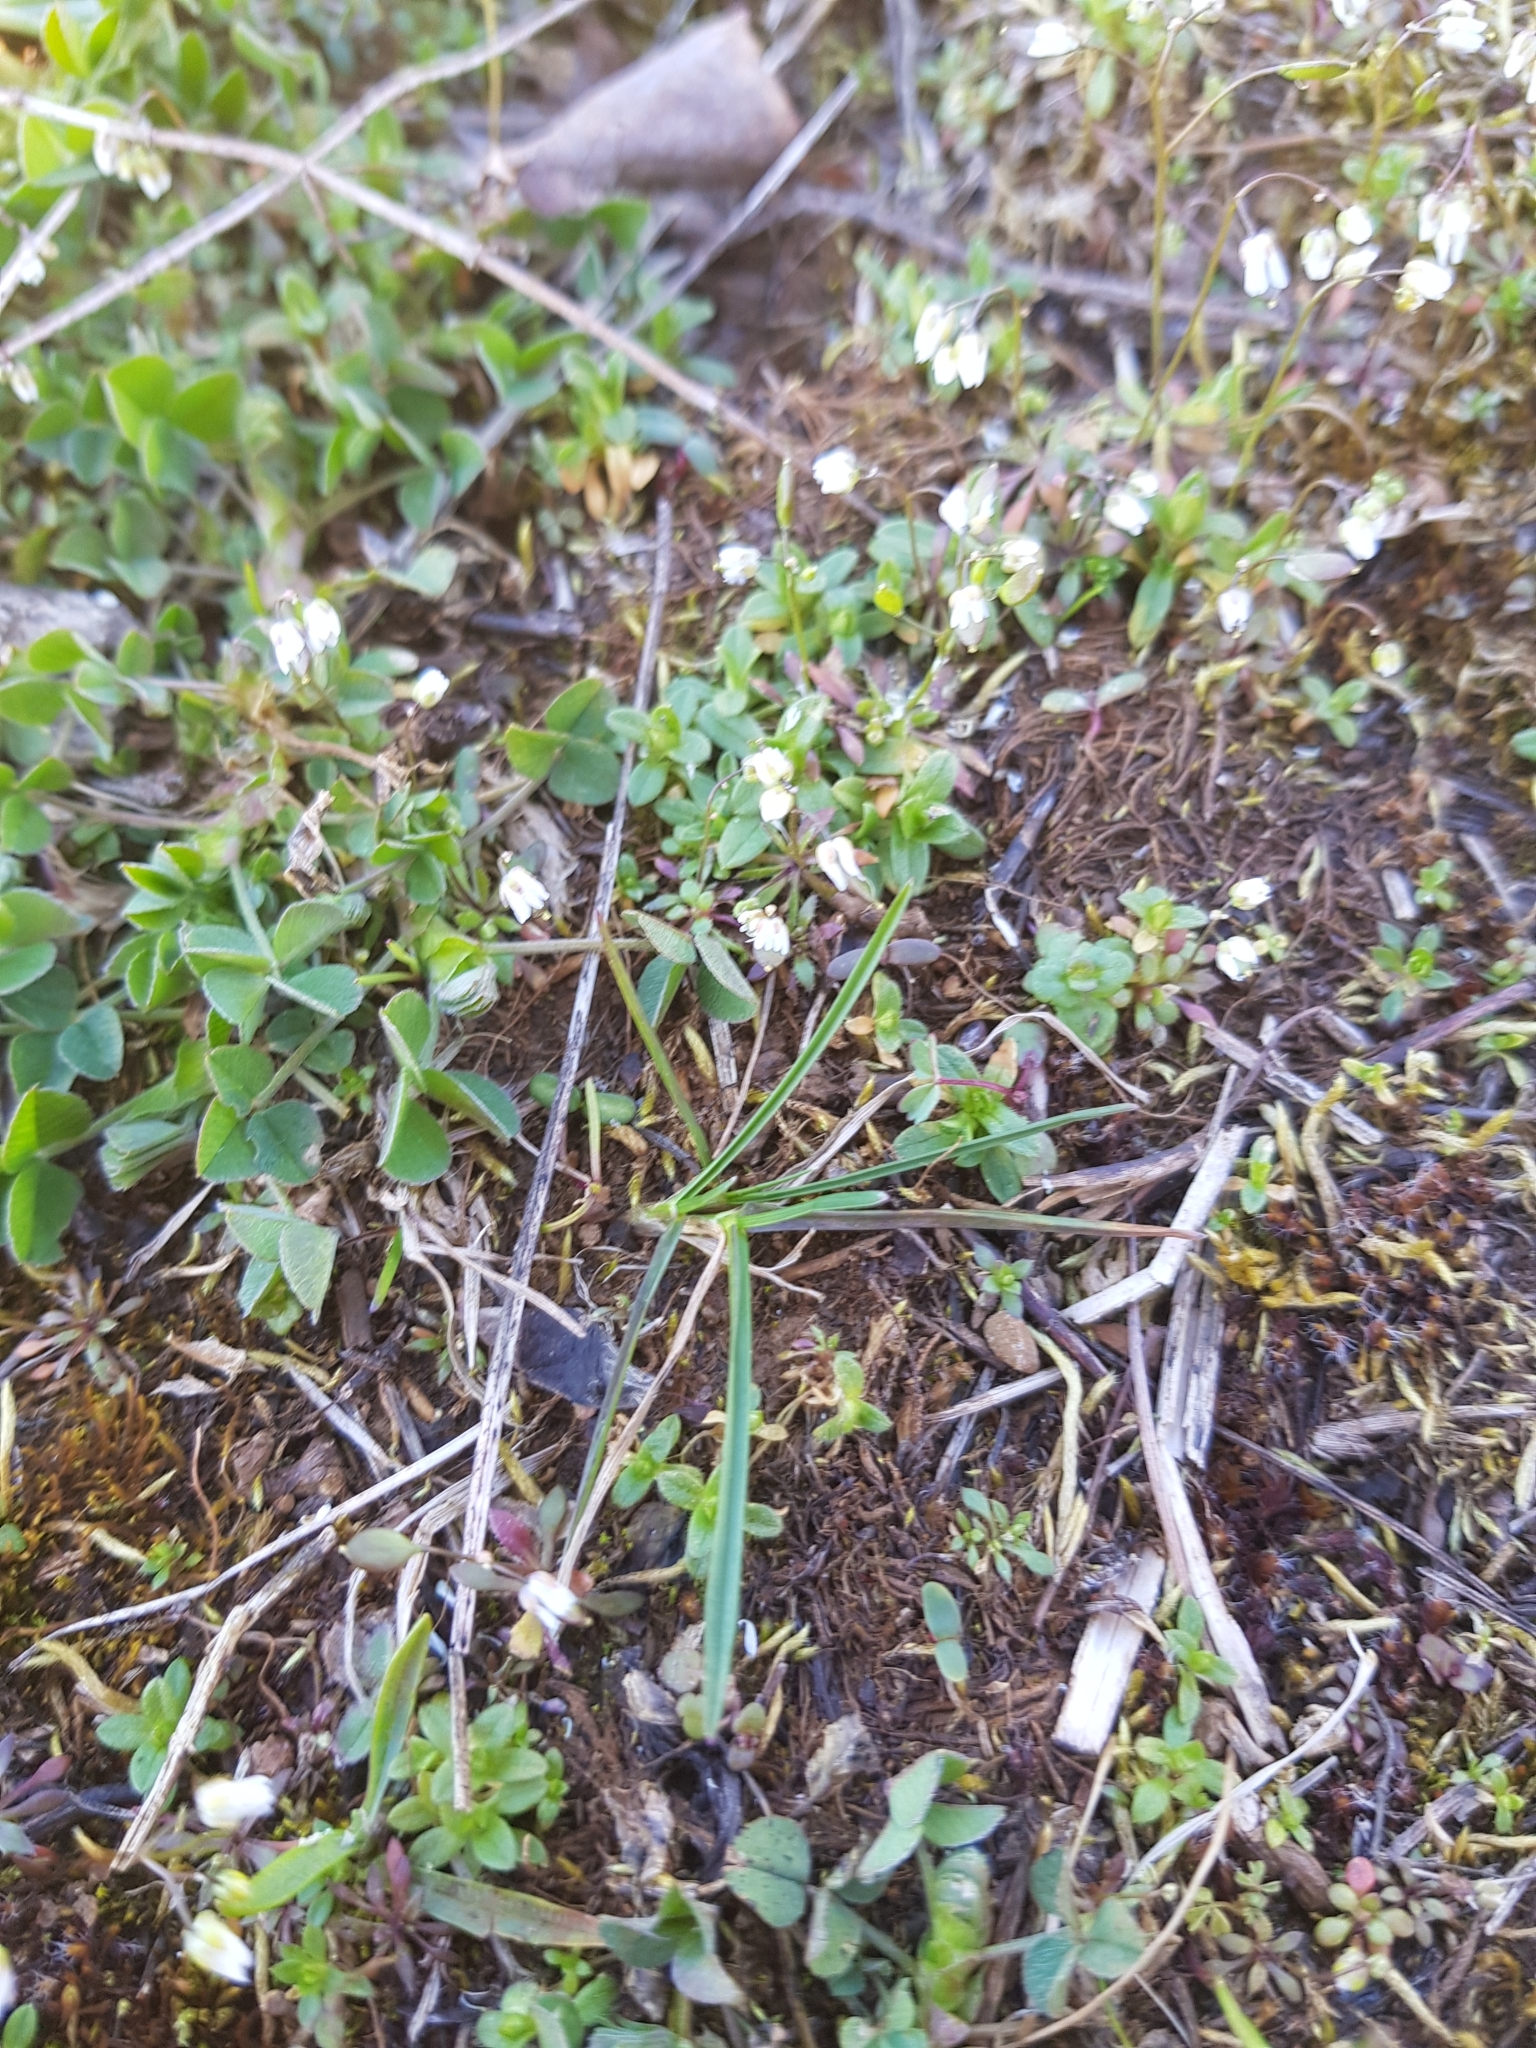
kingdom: Plantae
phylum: Tracheophyta
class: Magnoliopsida
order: Brassicales
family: Brassicaceae
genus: Draba
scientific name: Draba verna
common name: Spring draba
